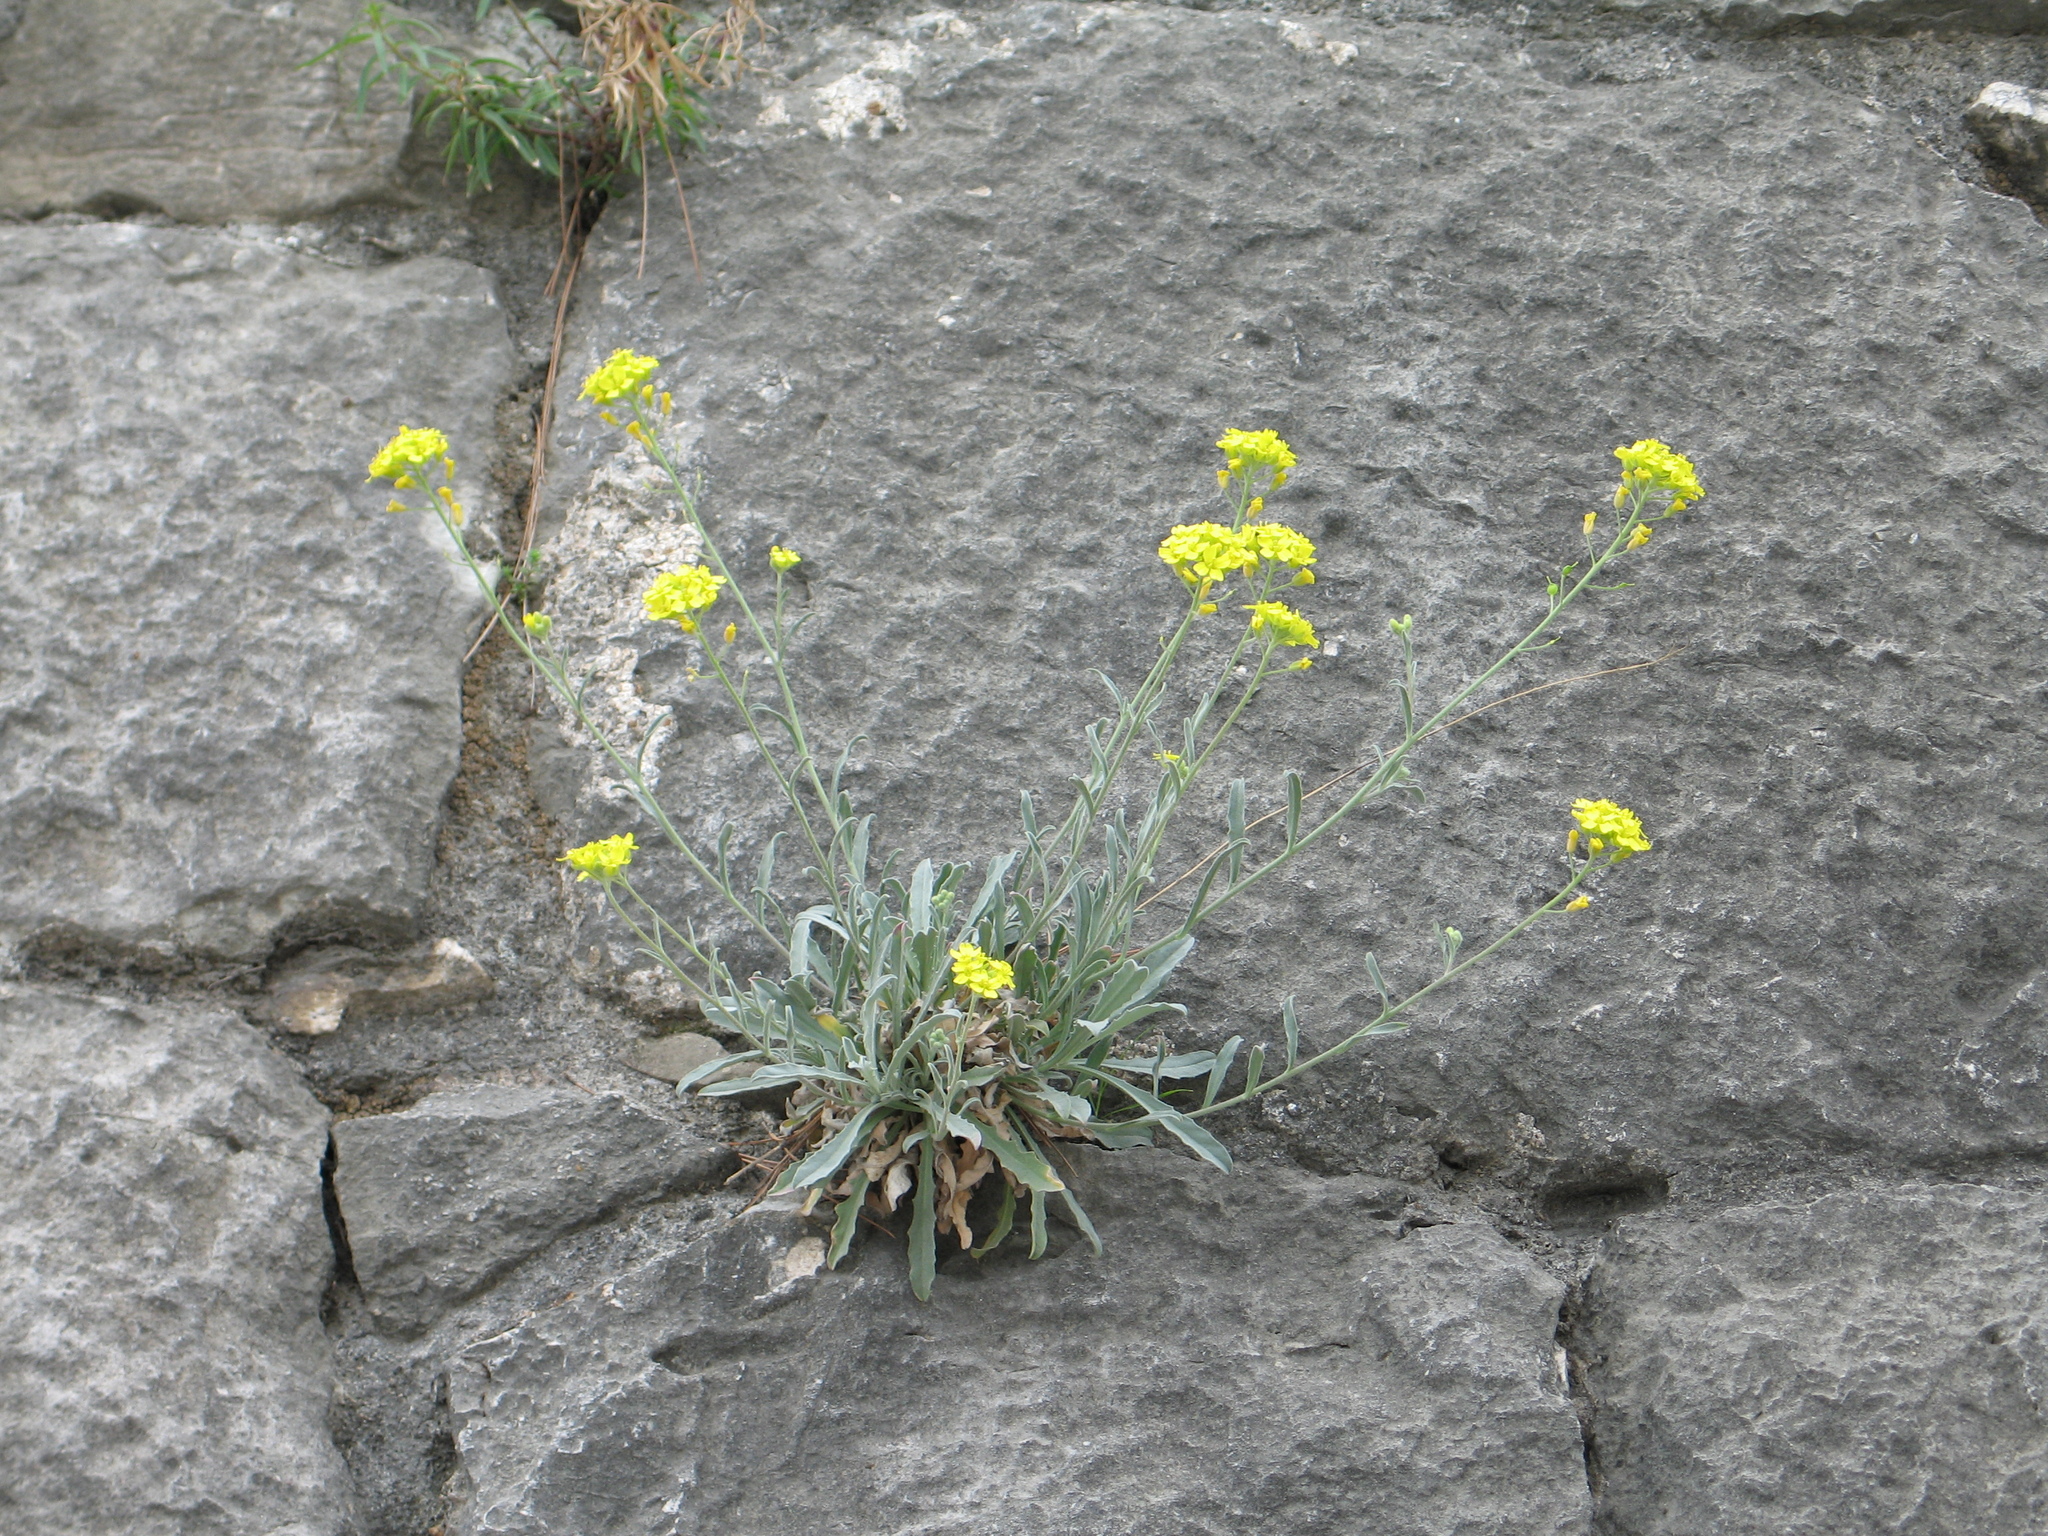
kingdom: Plantae
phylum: Tracheophyta
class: Magnoliopsida
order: Brassicales
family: Brassicaceae
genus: Aurinia
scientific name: Aurinia saxatilis
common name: Golden-tuft alyssum
